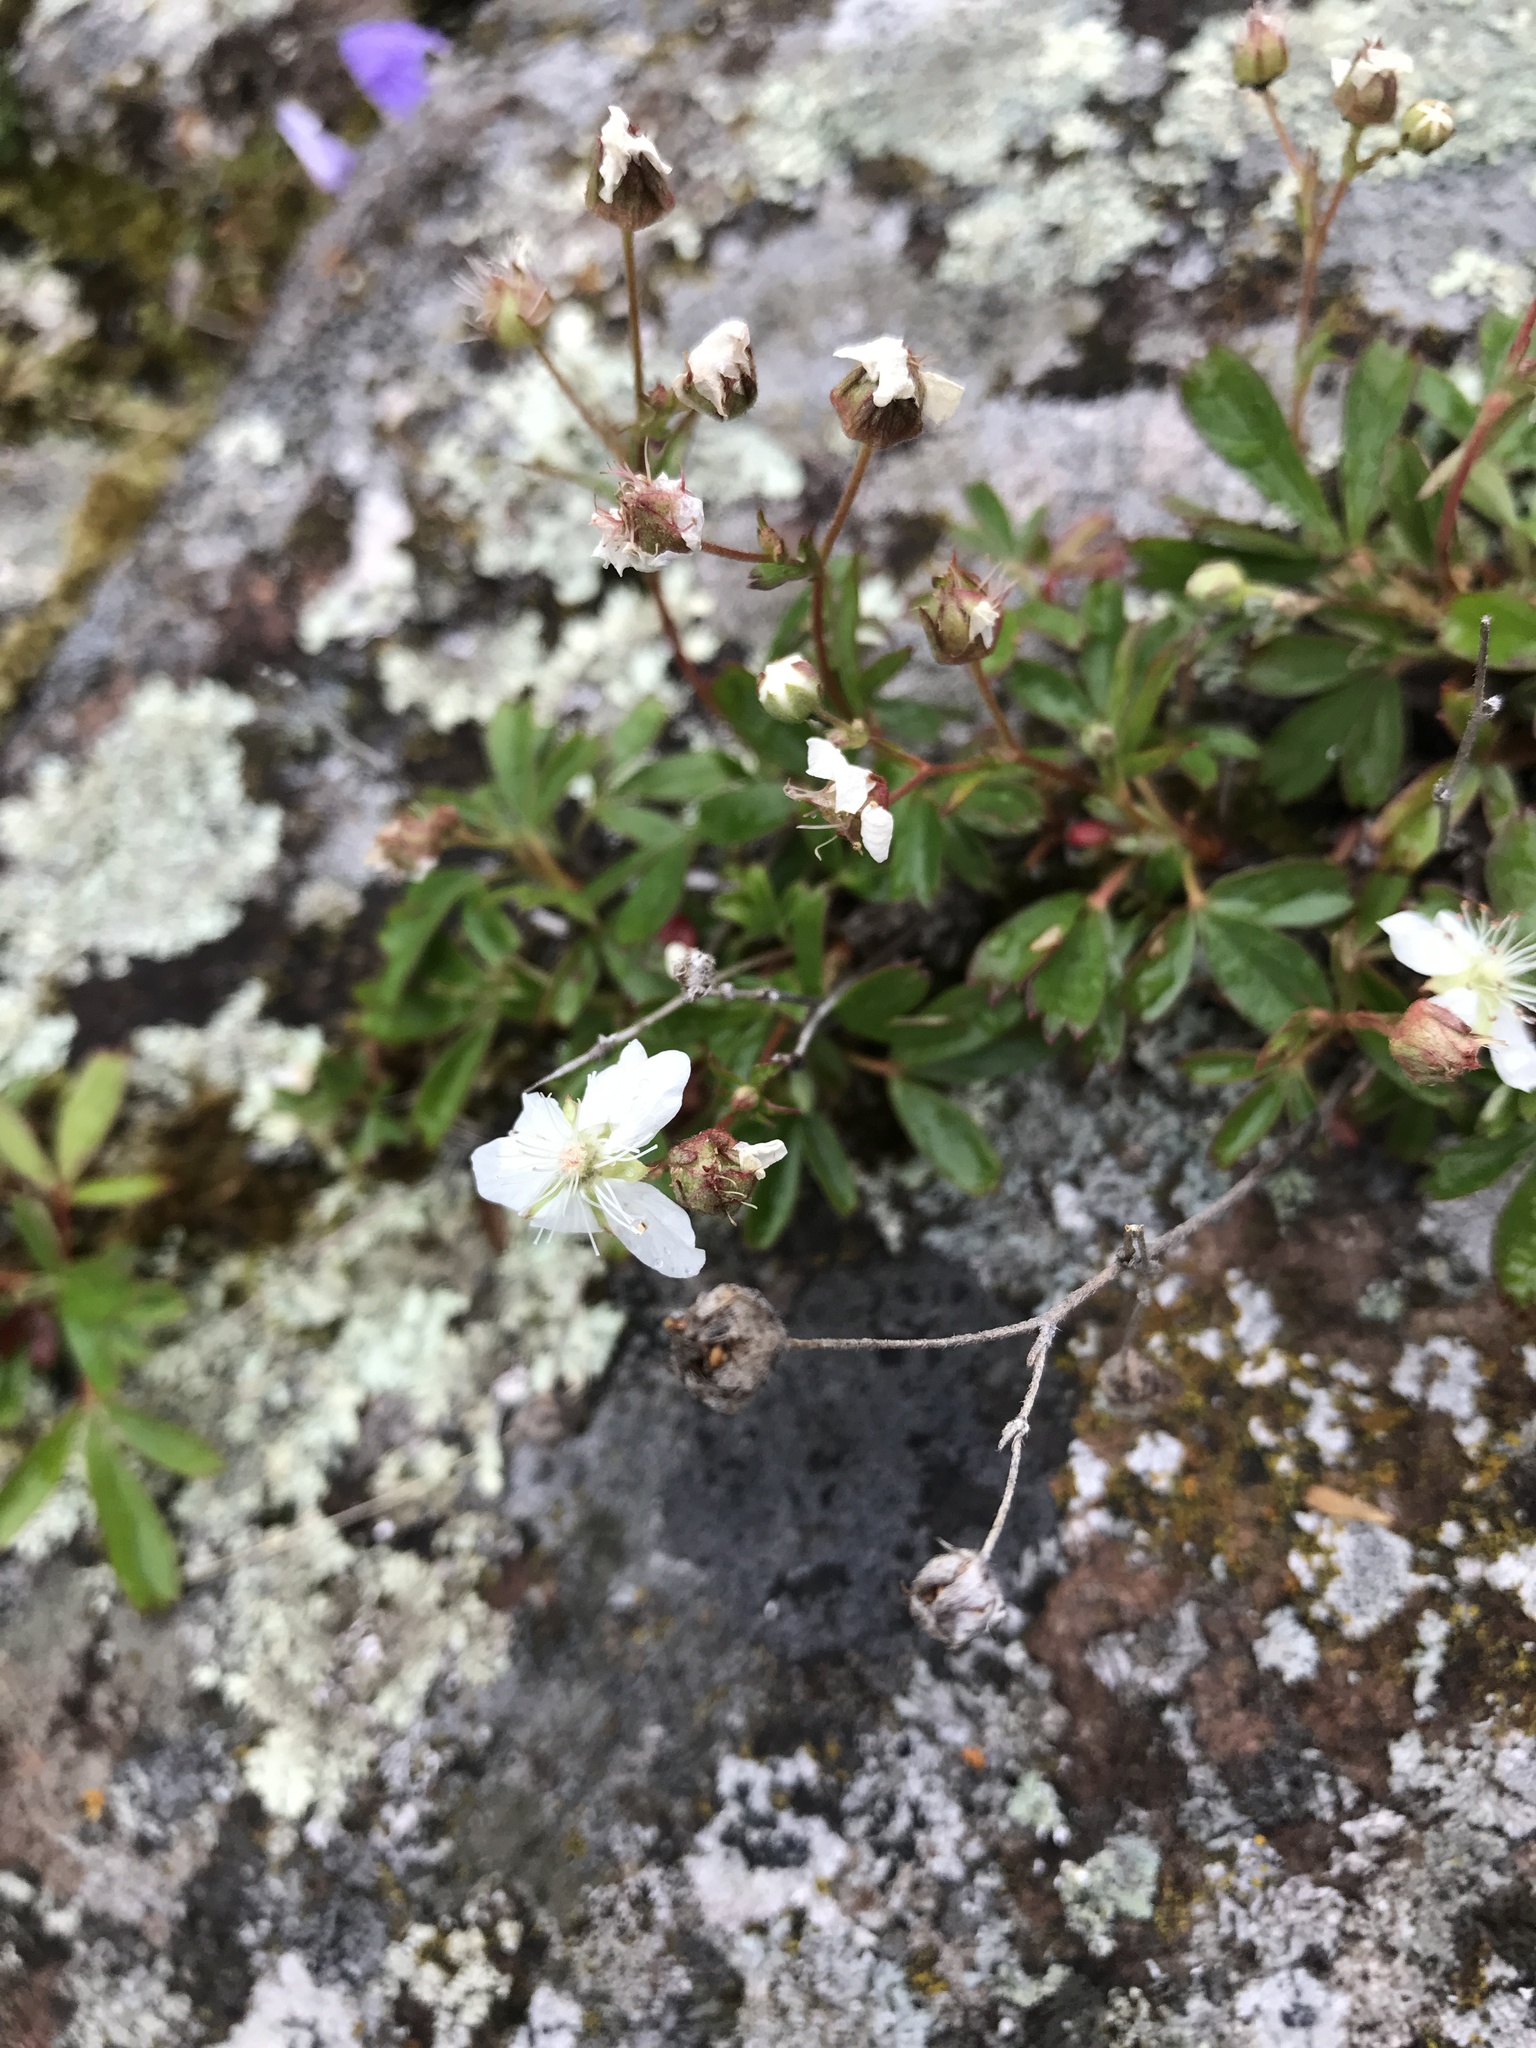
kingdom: Plantae
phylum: Tracheophyta
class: Magnoliopsida
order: Rosales
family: Rosaceae
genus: Sibbaldia
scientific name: Sibbaldia tridentata
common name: Three-toothed cinquefoil
